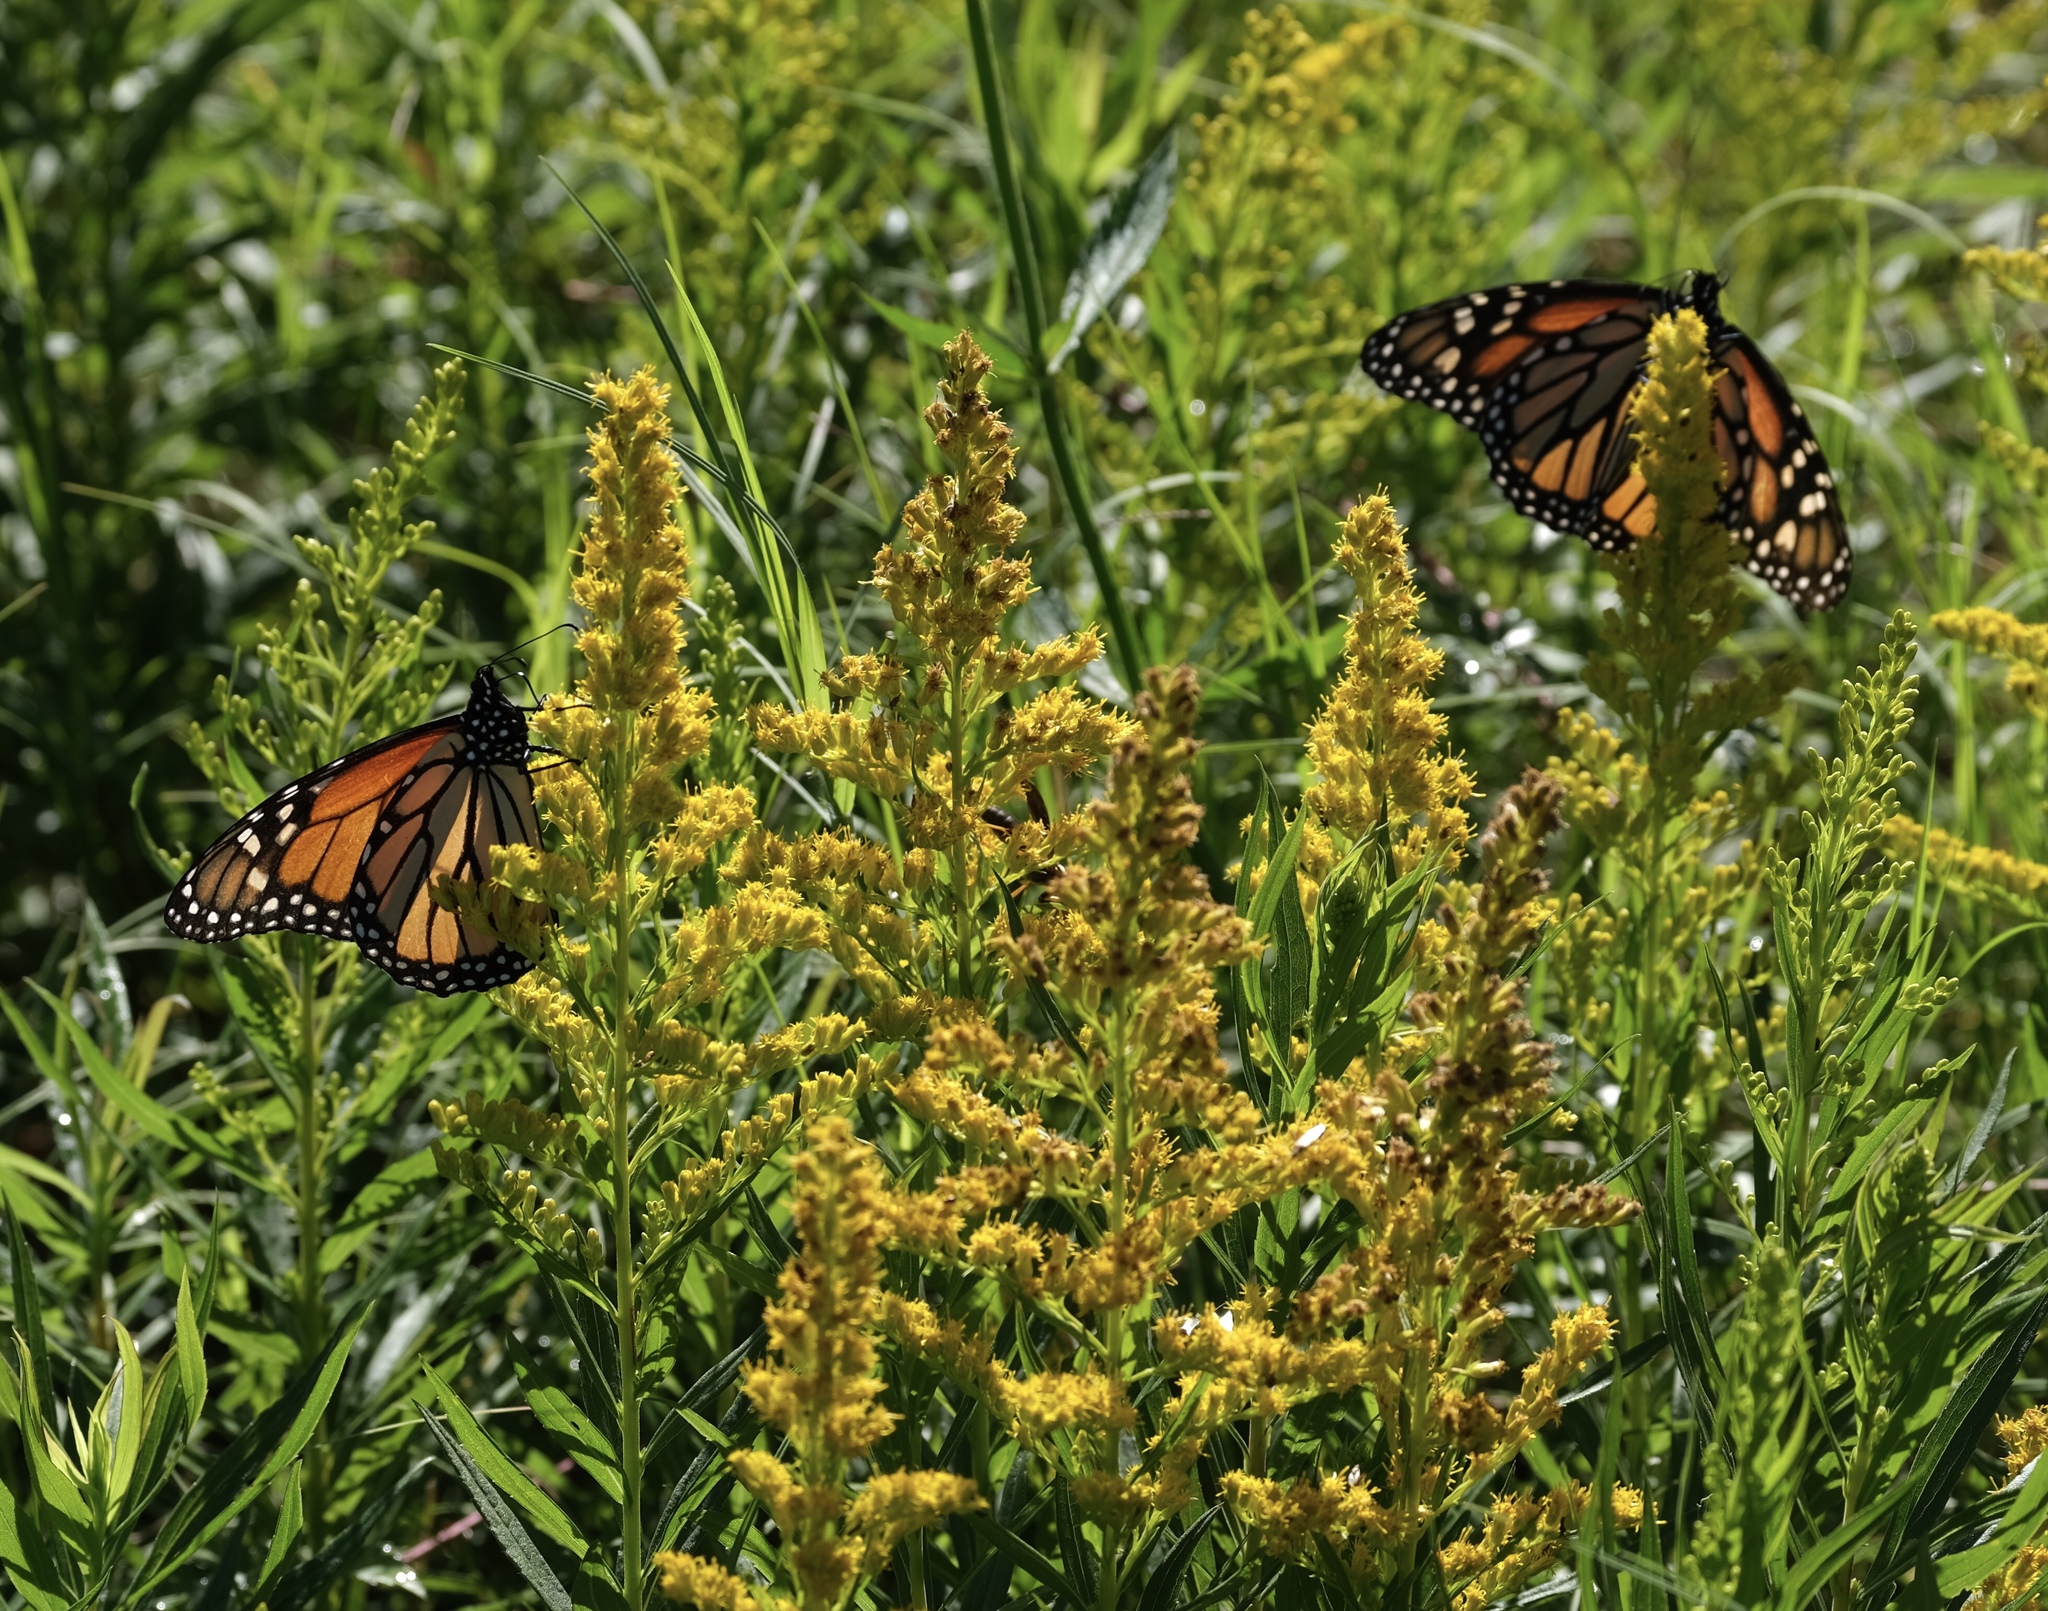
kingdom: Animalia
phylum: Arthropoda
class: Insecta
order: Lepidoptera
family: Nymphalidae
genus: Danaus
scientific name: Danaus plexippus
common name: Monarch
